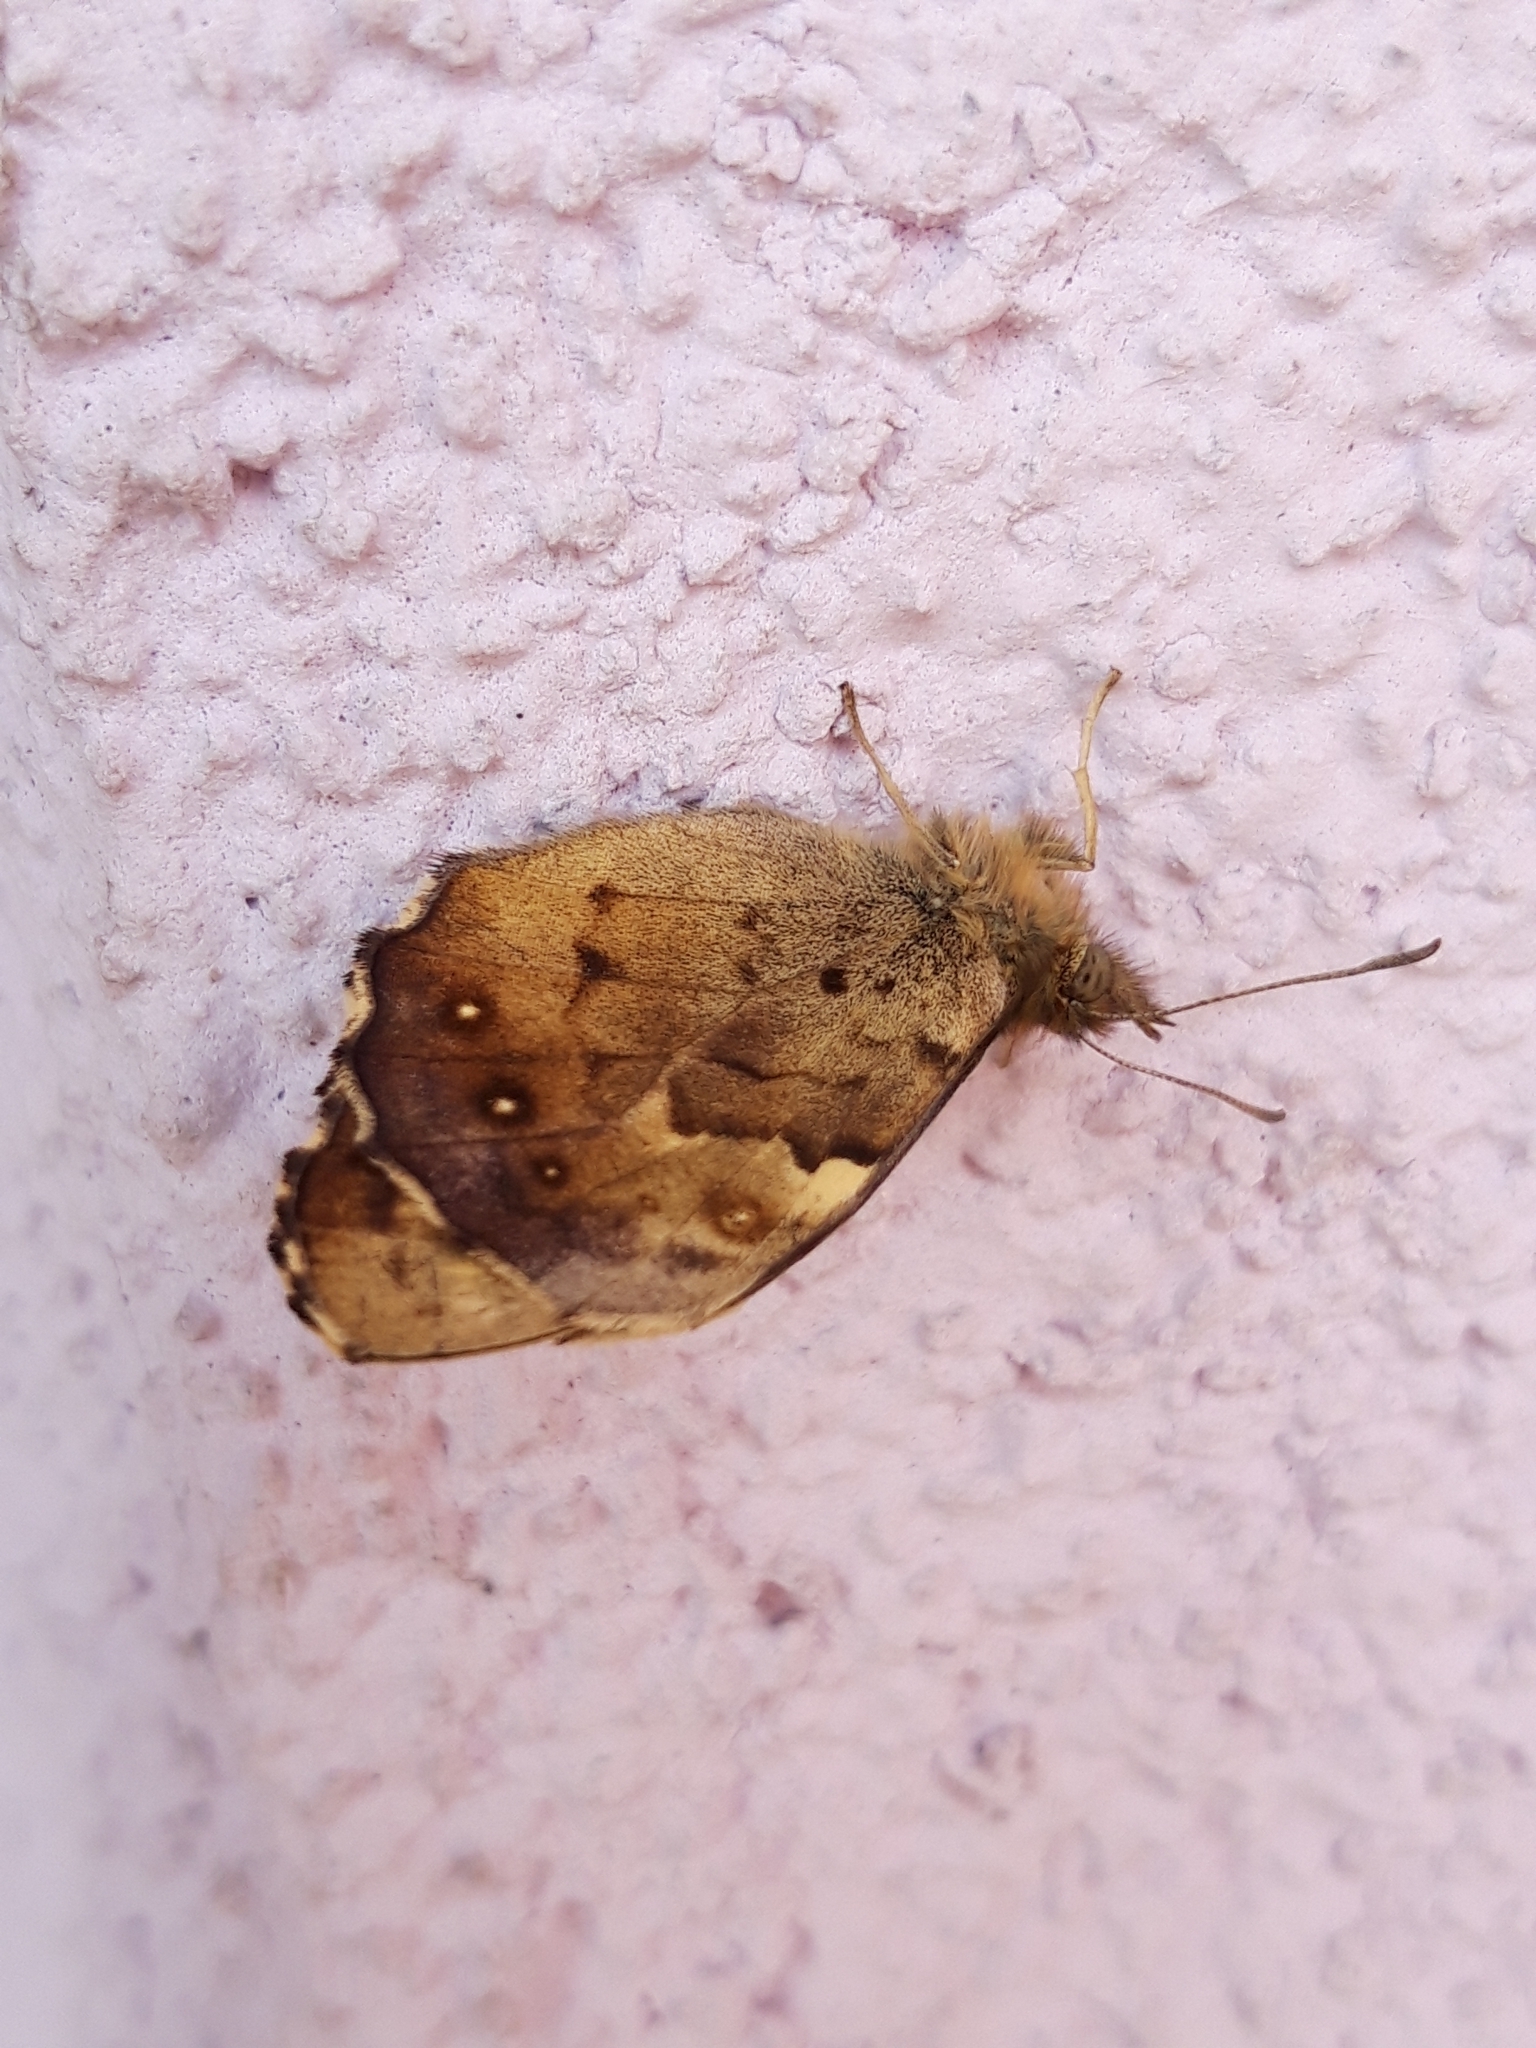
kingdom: Animalia
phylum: Arthropoda
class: Insecta
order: Lepidoptera
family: Nymphalidae
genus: Pararge
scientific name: Pararge aegeria
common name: Speckled wood
